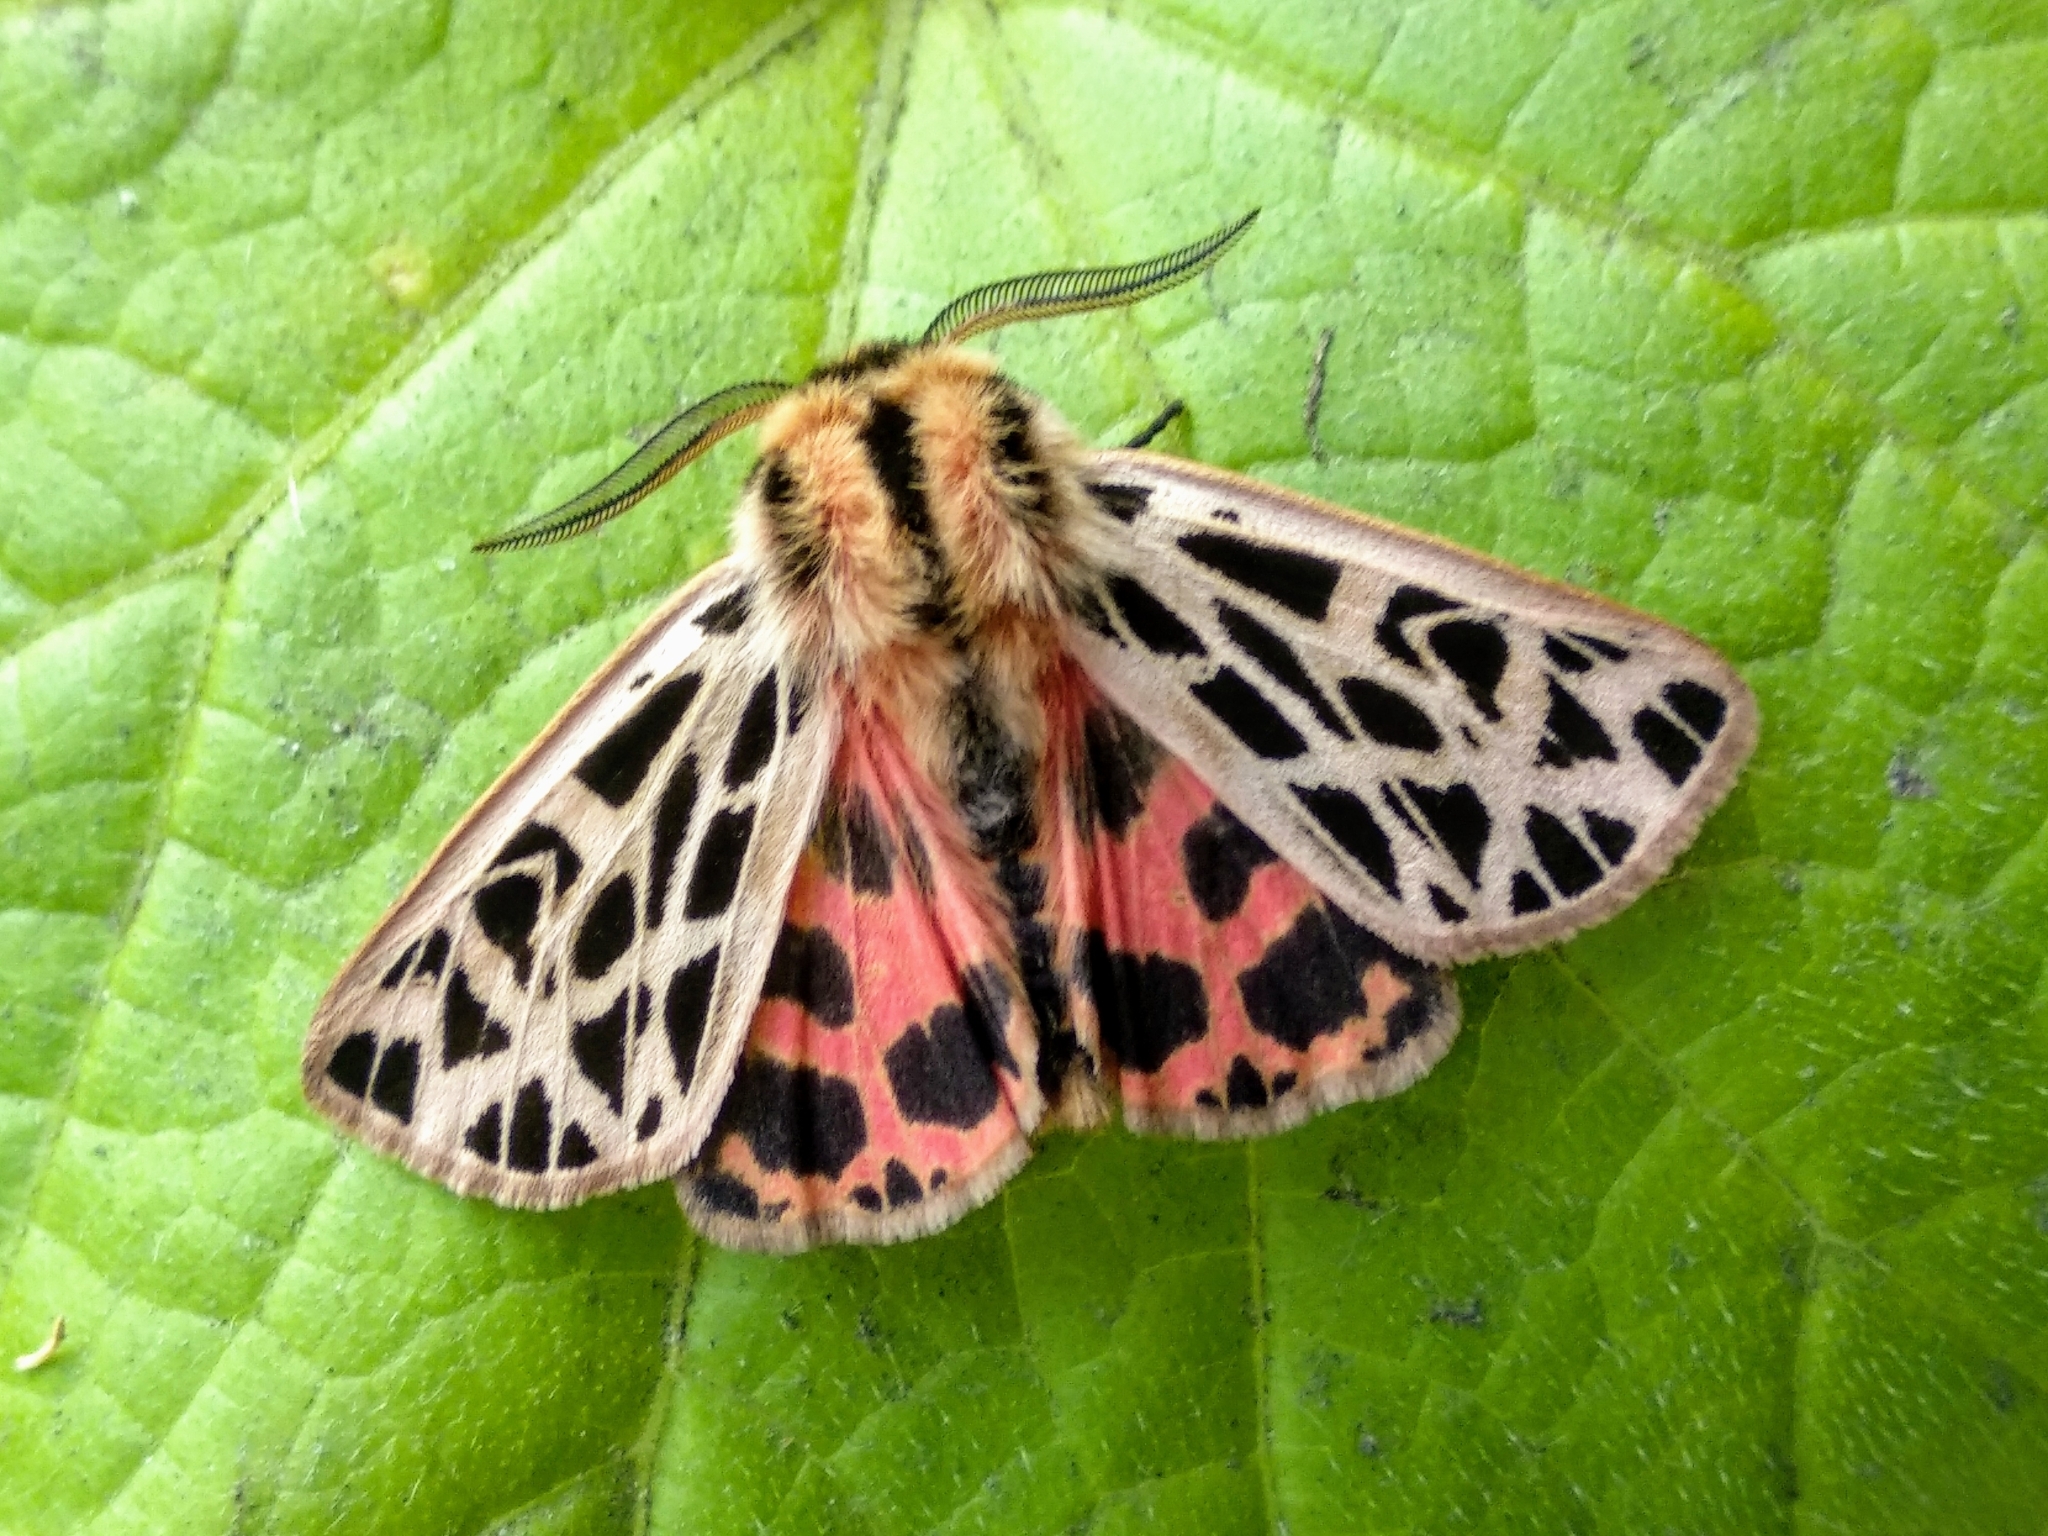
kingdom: Animalia
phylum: Arthropoda
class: Insecta
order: Lepidoptera
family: Erebidae
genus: Chelis
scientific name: Chelis dahurica
